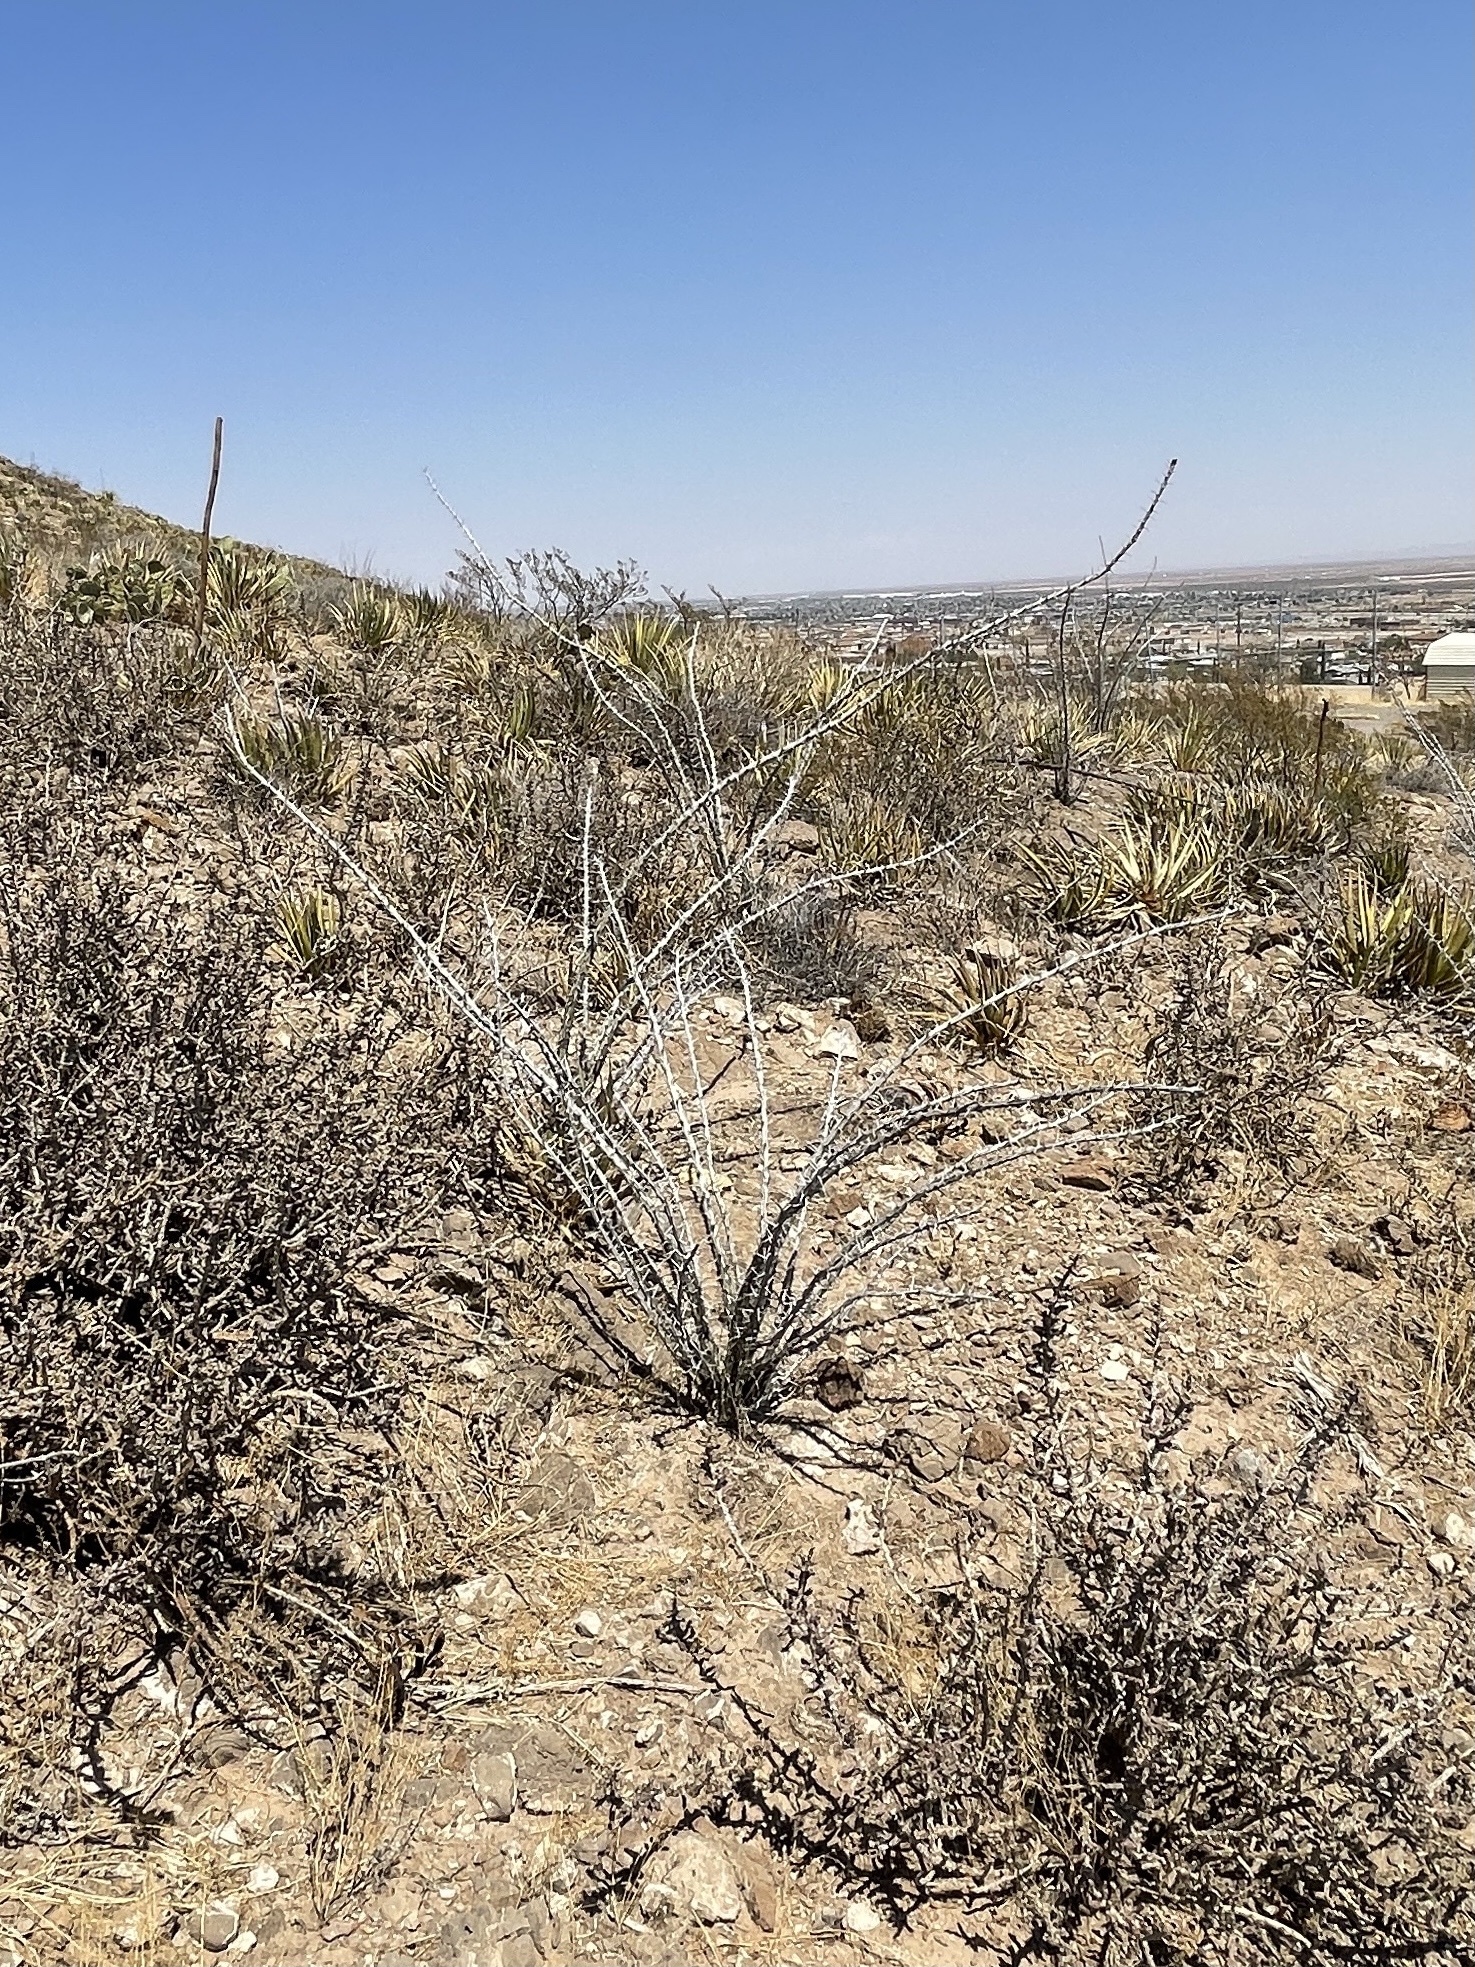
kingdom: Plantae
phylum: Tracheophyta
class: Magnoliopsida
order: Ericales
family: Fouquieriaceae
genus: Fouquieria
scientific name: Fouquieria splendens
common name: Vine-cactus
